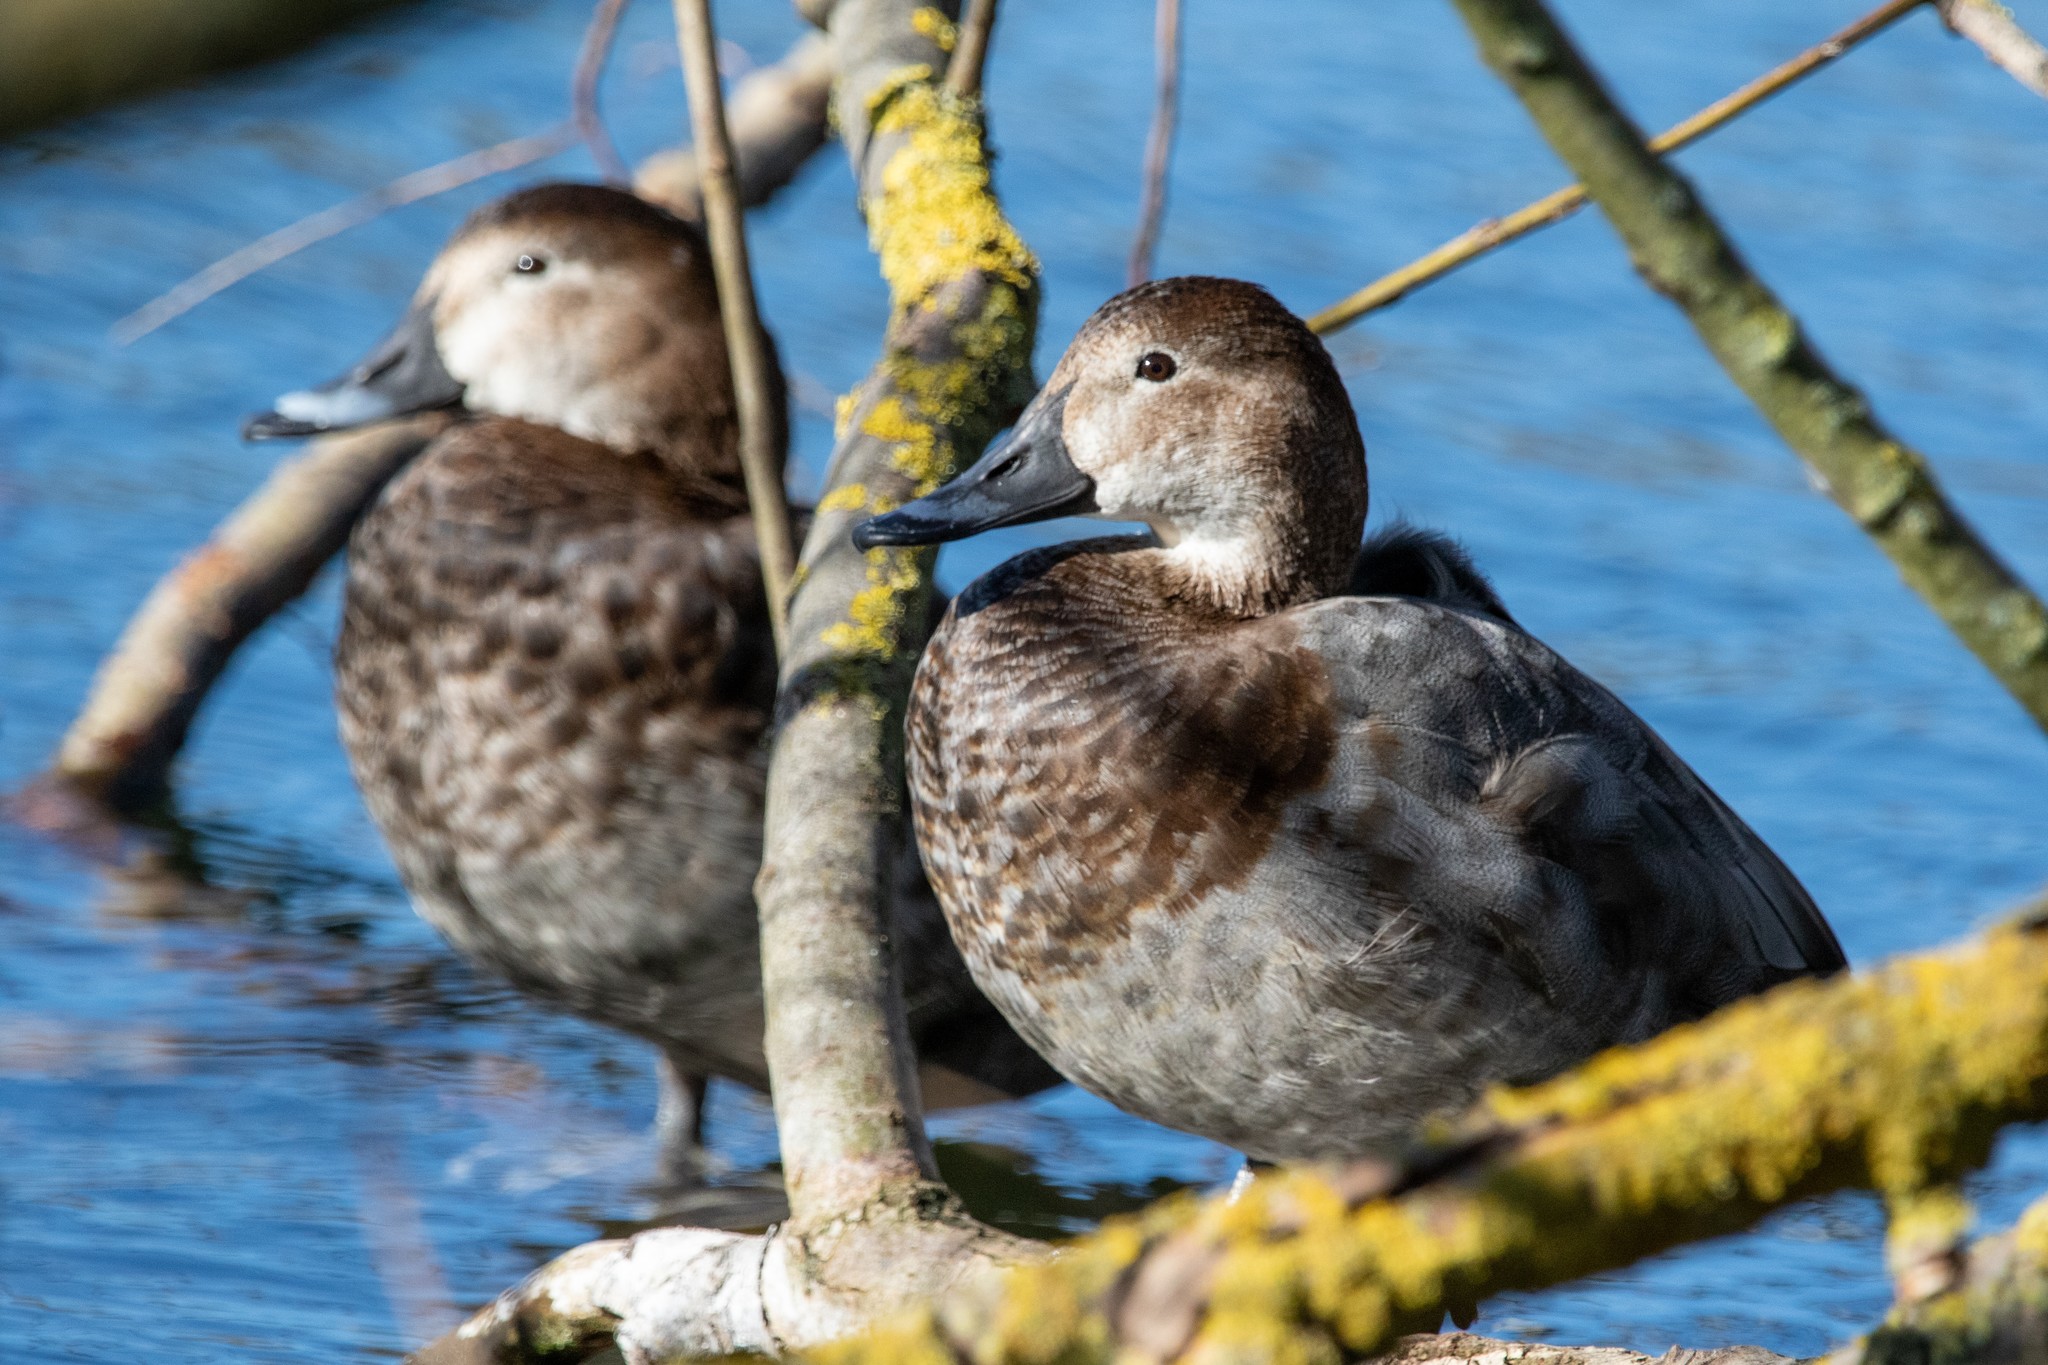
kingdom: Animalia
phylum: Chordata
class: Aves
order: Anseriformes
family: Anatidae
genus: Aythya
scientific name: Aythya ferina
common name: Common pochard
